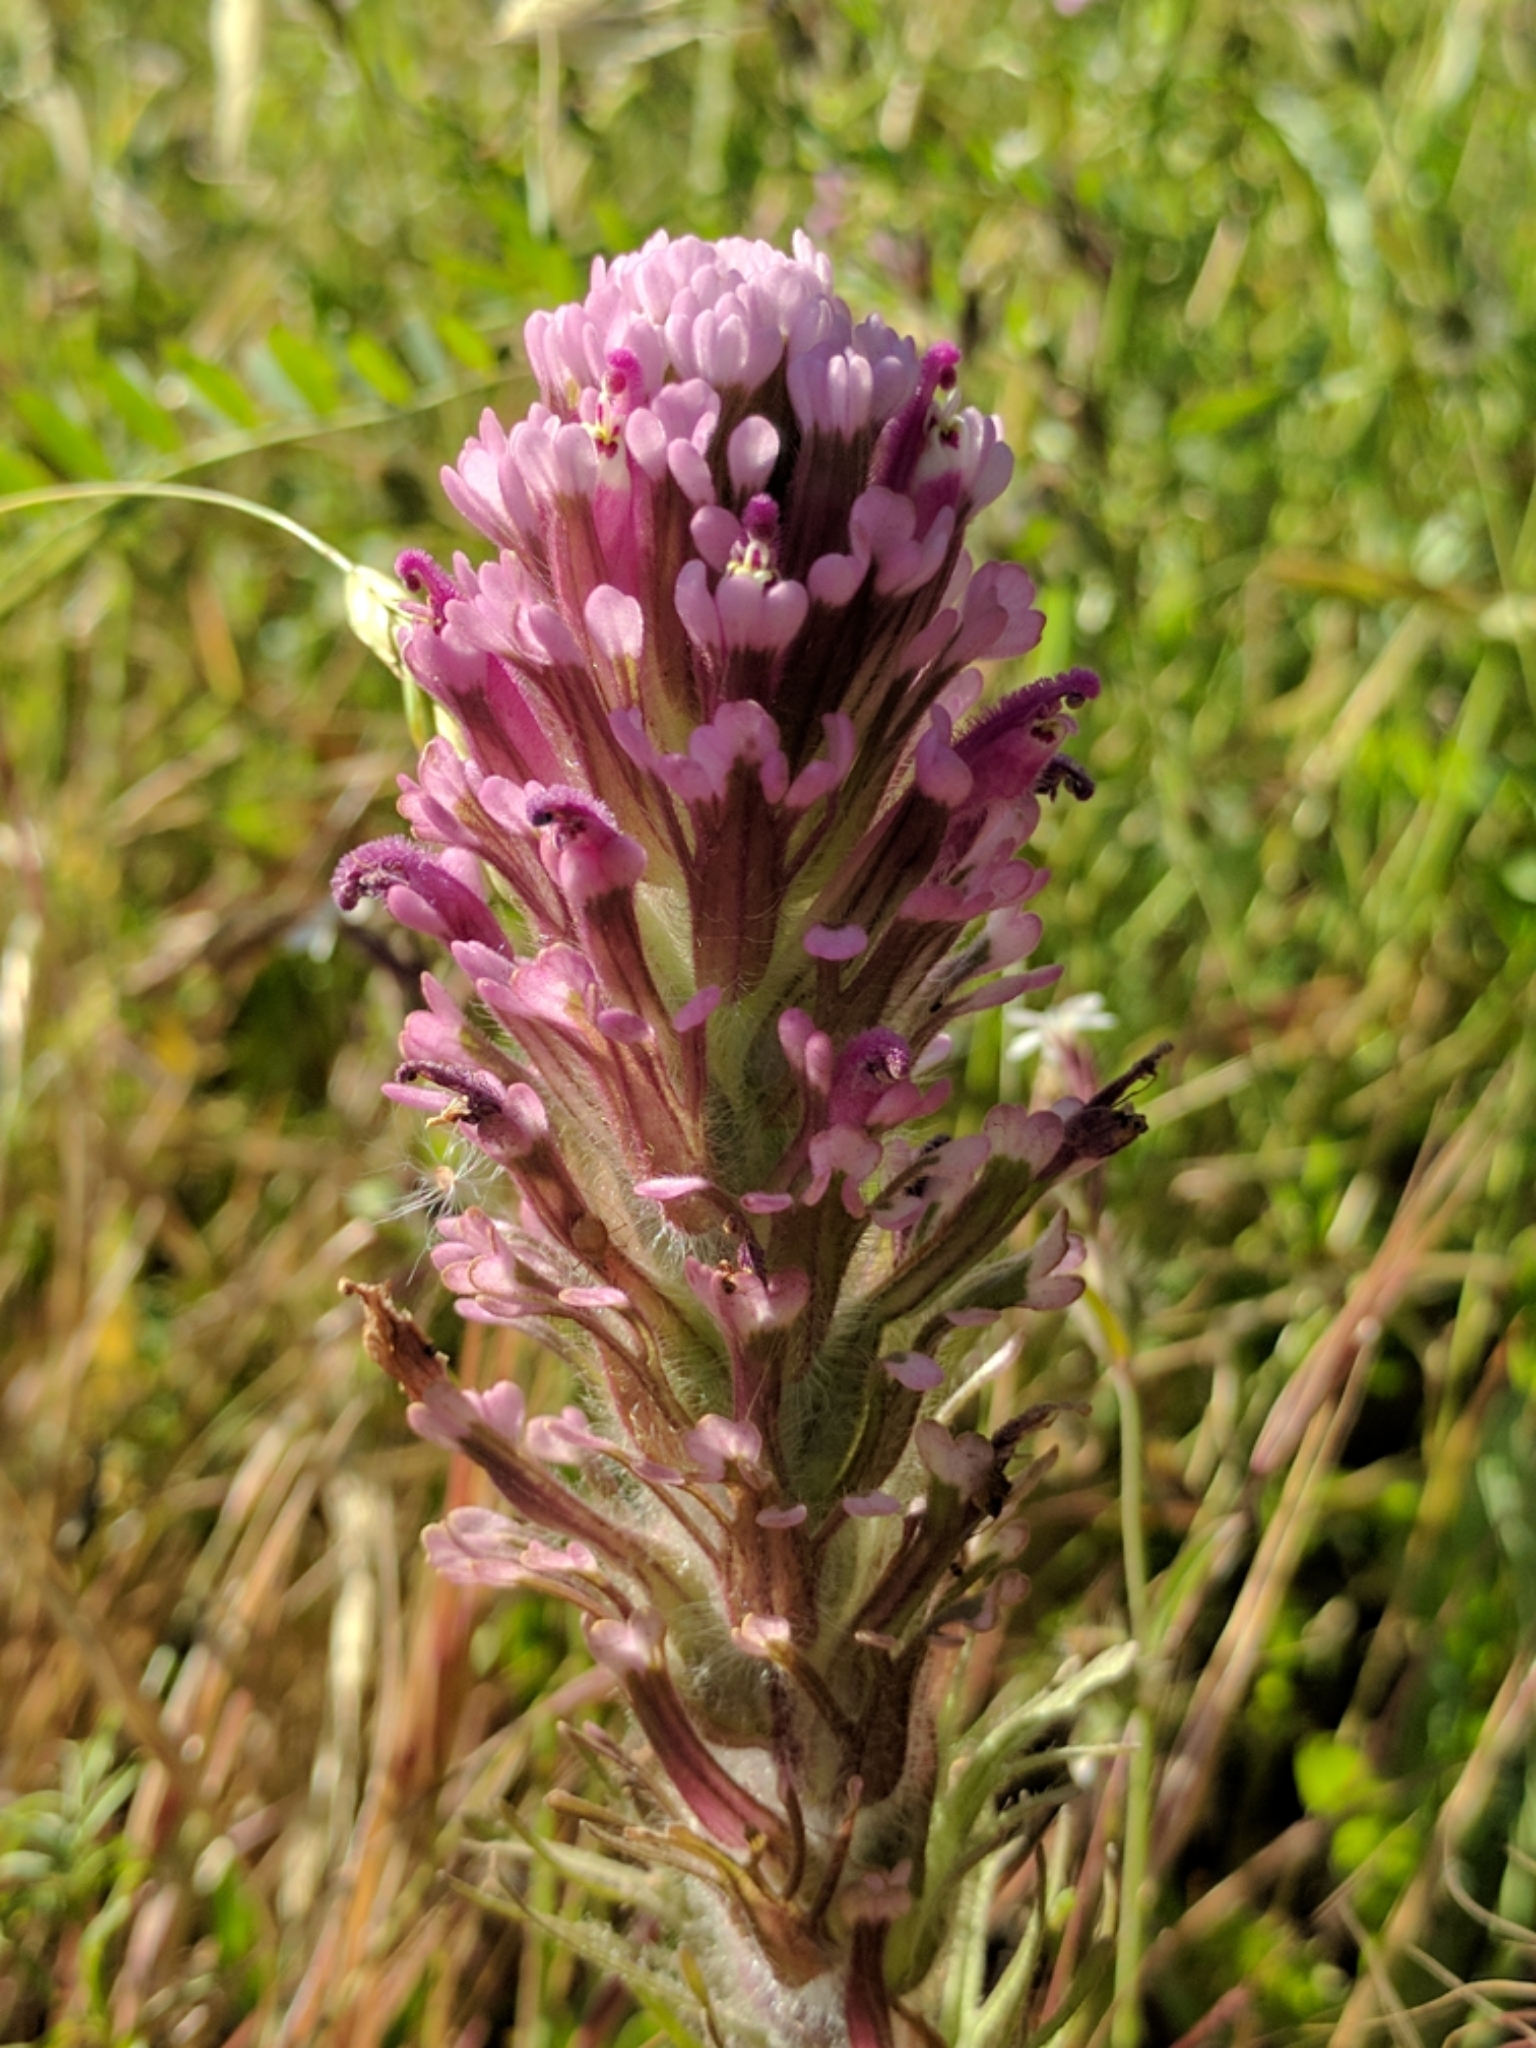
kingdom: Plantae
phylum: Tracheophyta
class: Magnoliopsida
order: Lamiales
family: Orobanchaceae
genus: Castilleja
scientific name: Castilleja exserta
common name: Purple owl-clover
